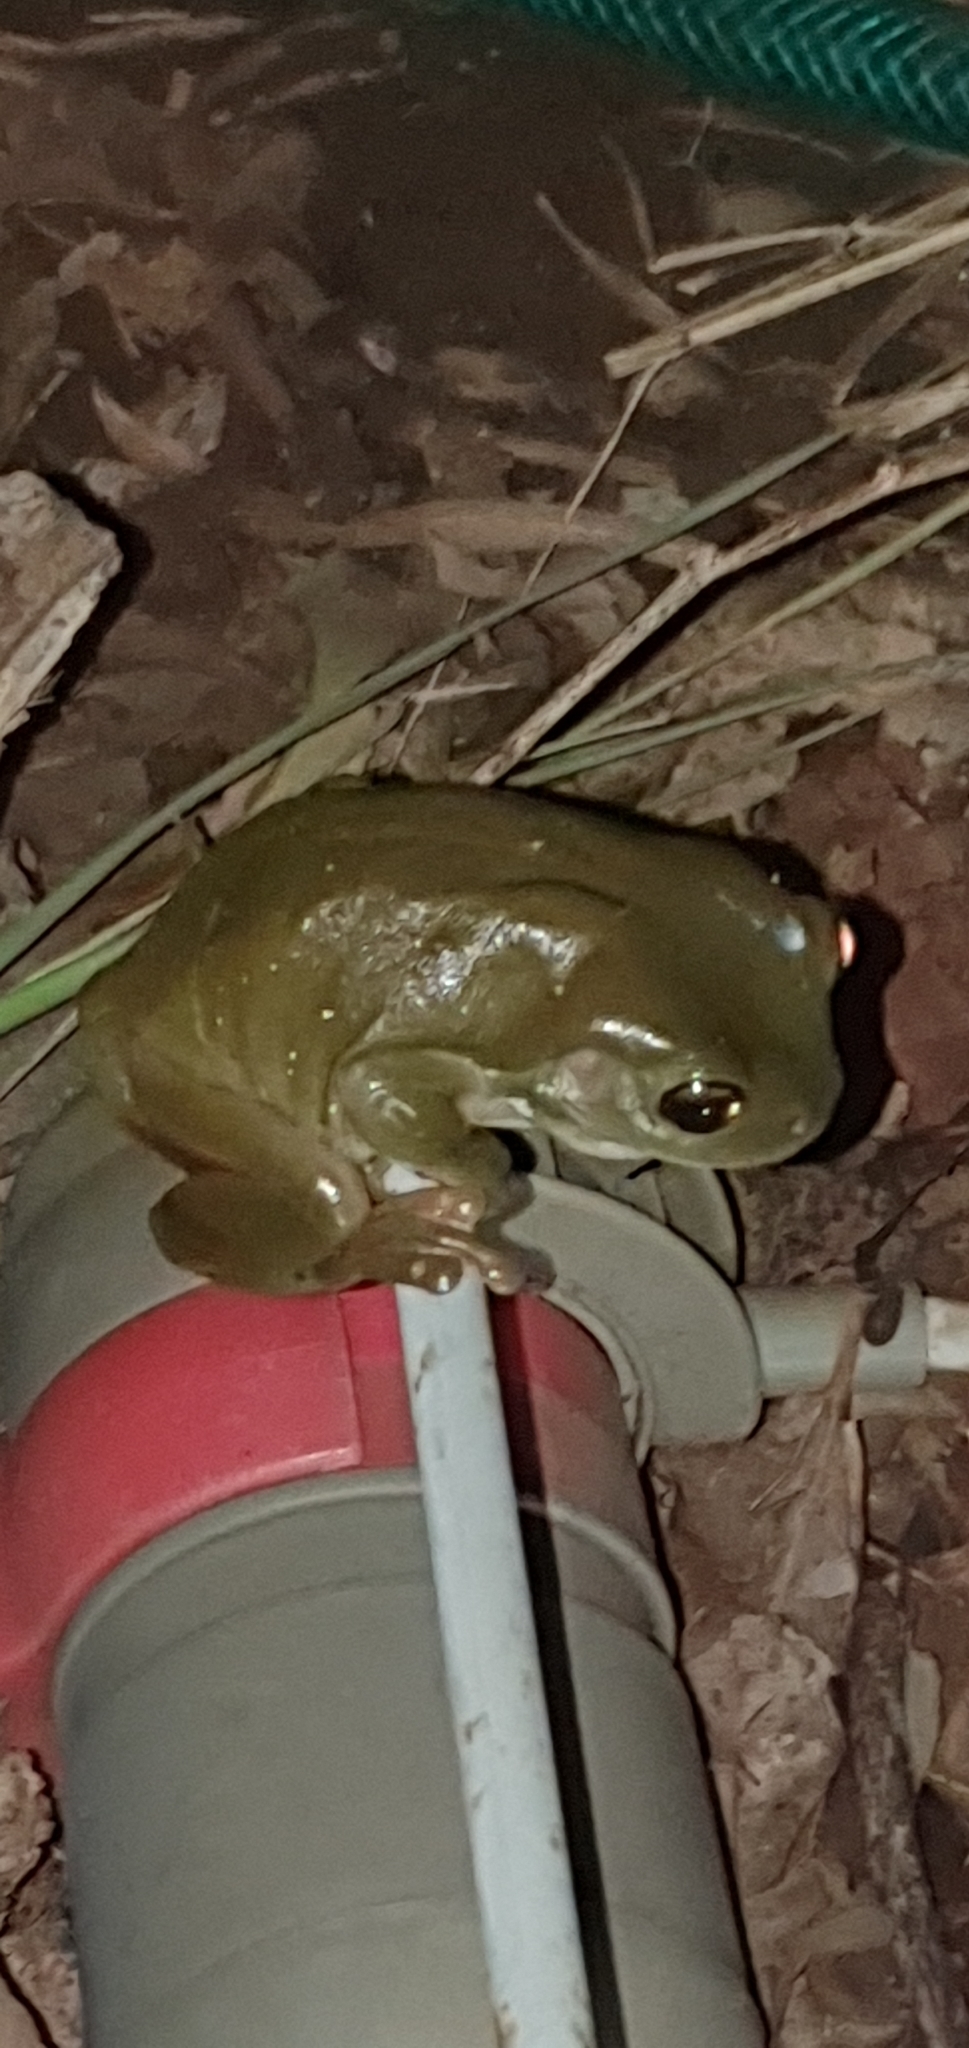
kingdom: Animalia
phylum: Chordata
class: Amphibia
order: Anura
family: Pelodryadidae
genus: Ranoidea
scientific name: Ranoidea caerulea
